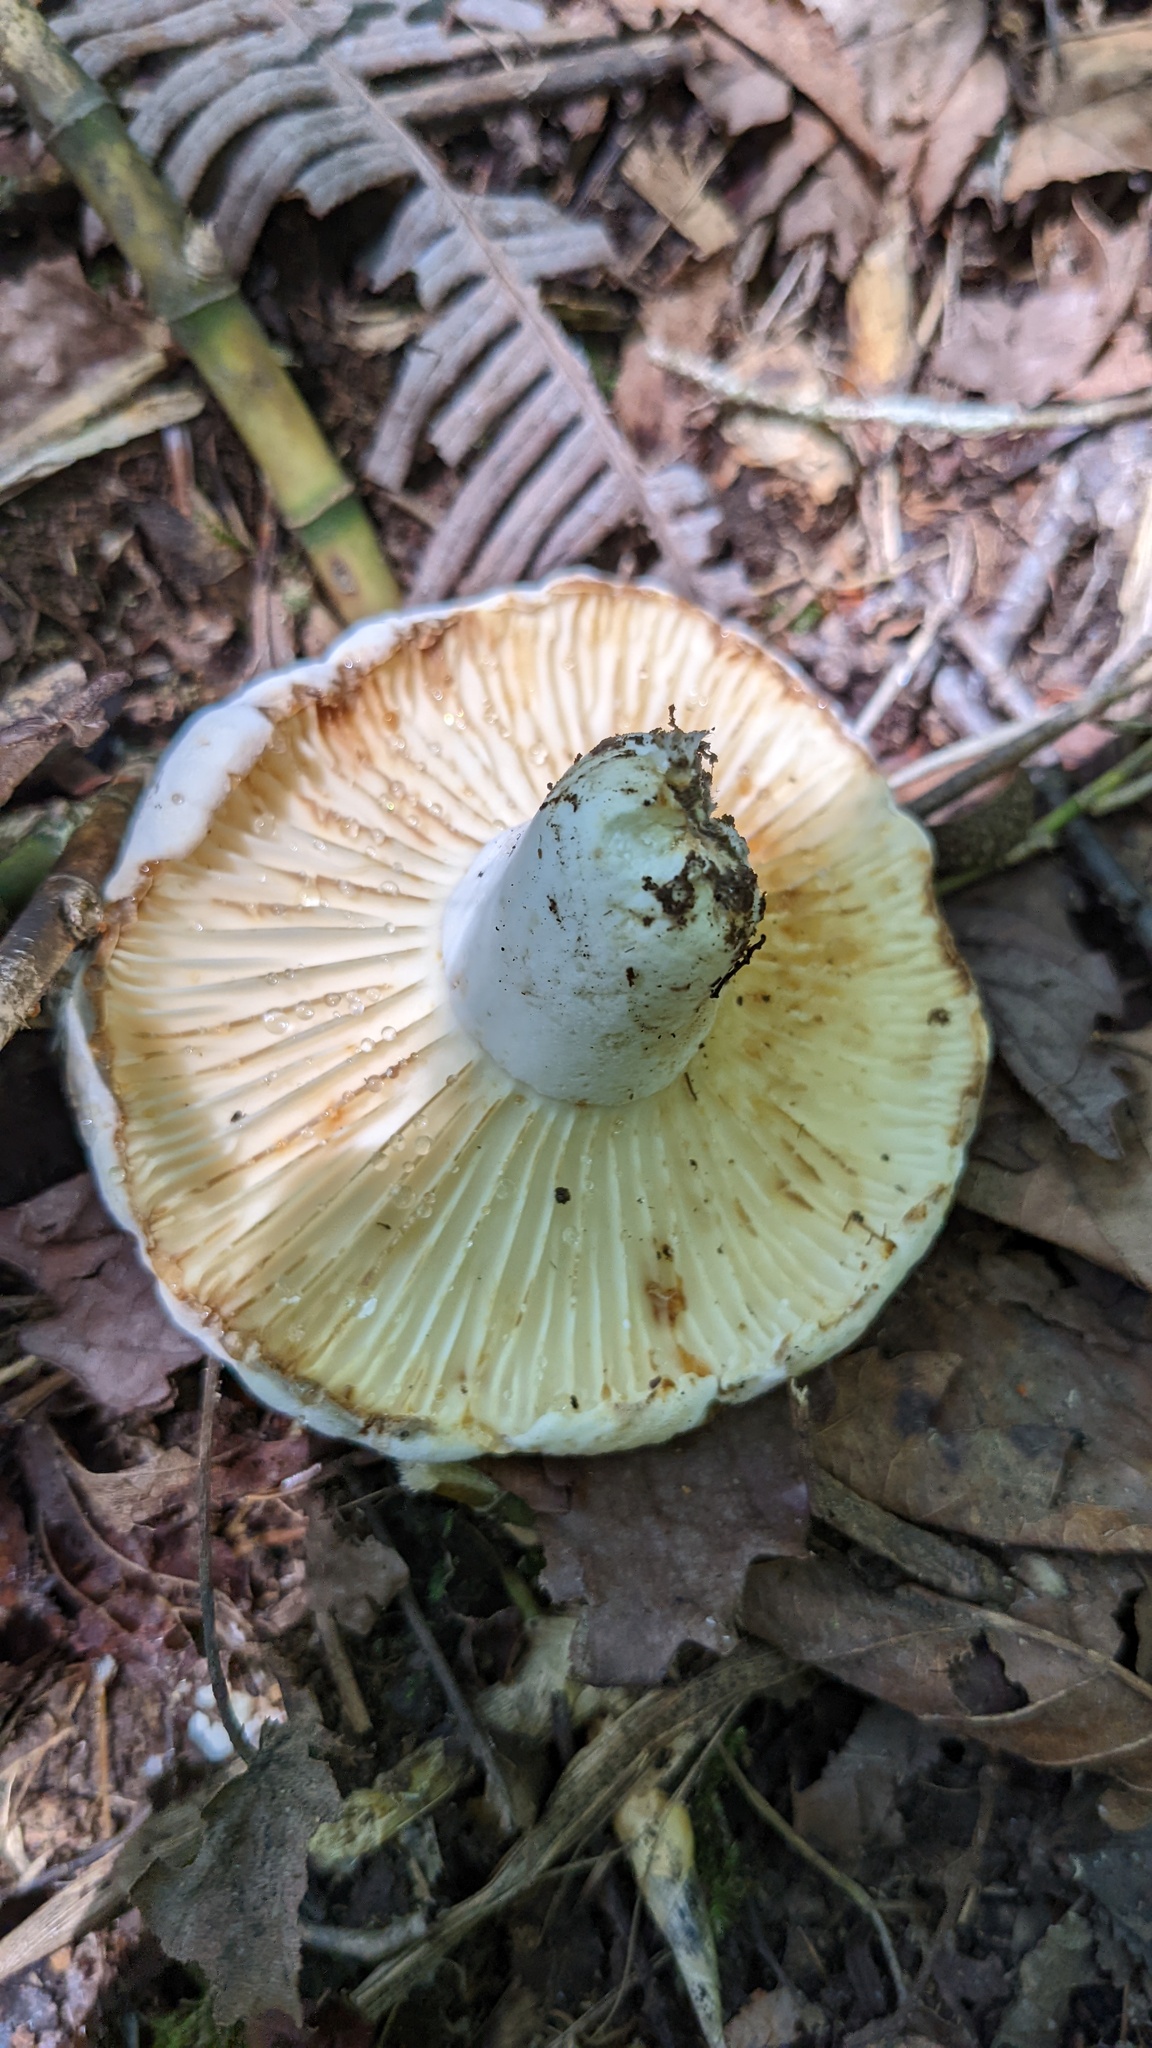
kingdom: Fungi
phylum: Basidiomycota
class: Agaricomycetes
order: Russulales
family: Russulaceae
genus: Lactifluus
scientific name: Lactifluus subpiperatus
